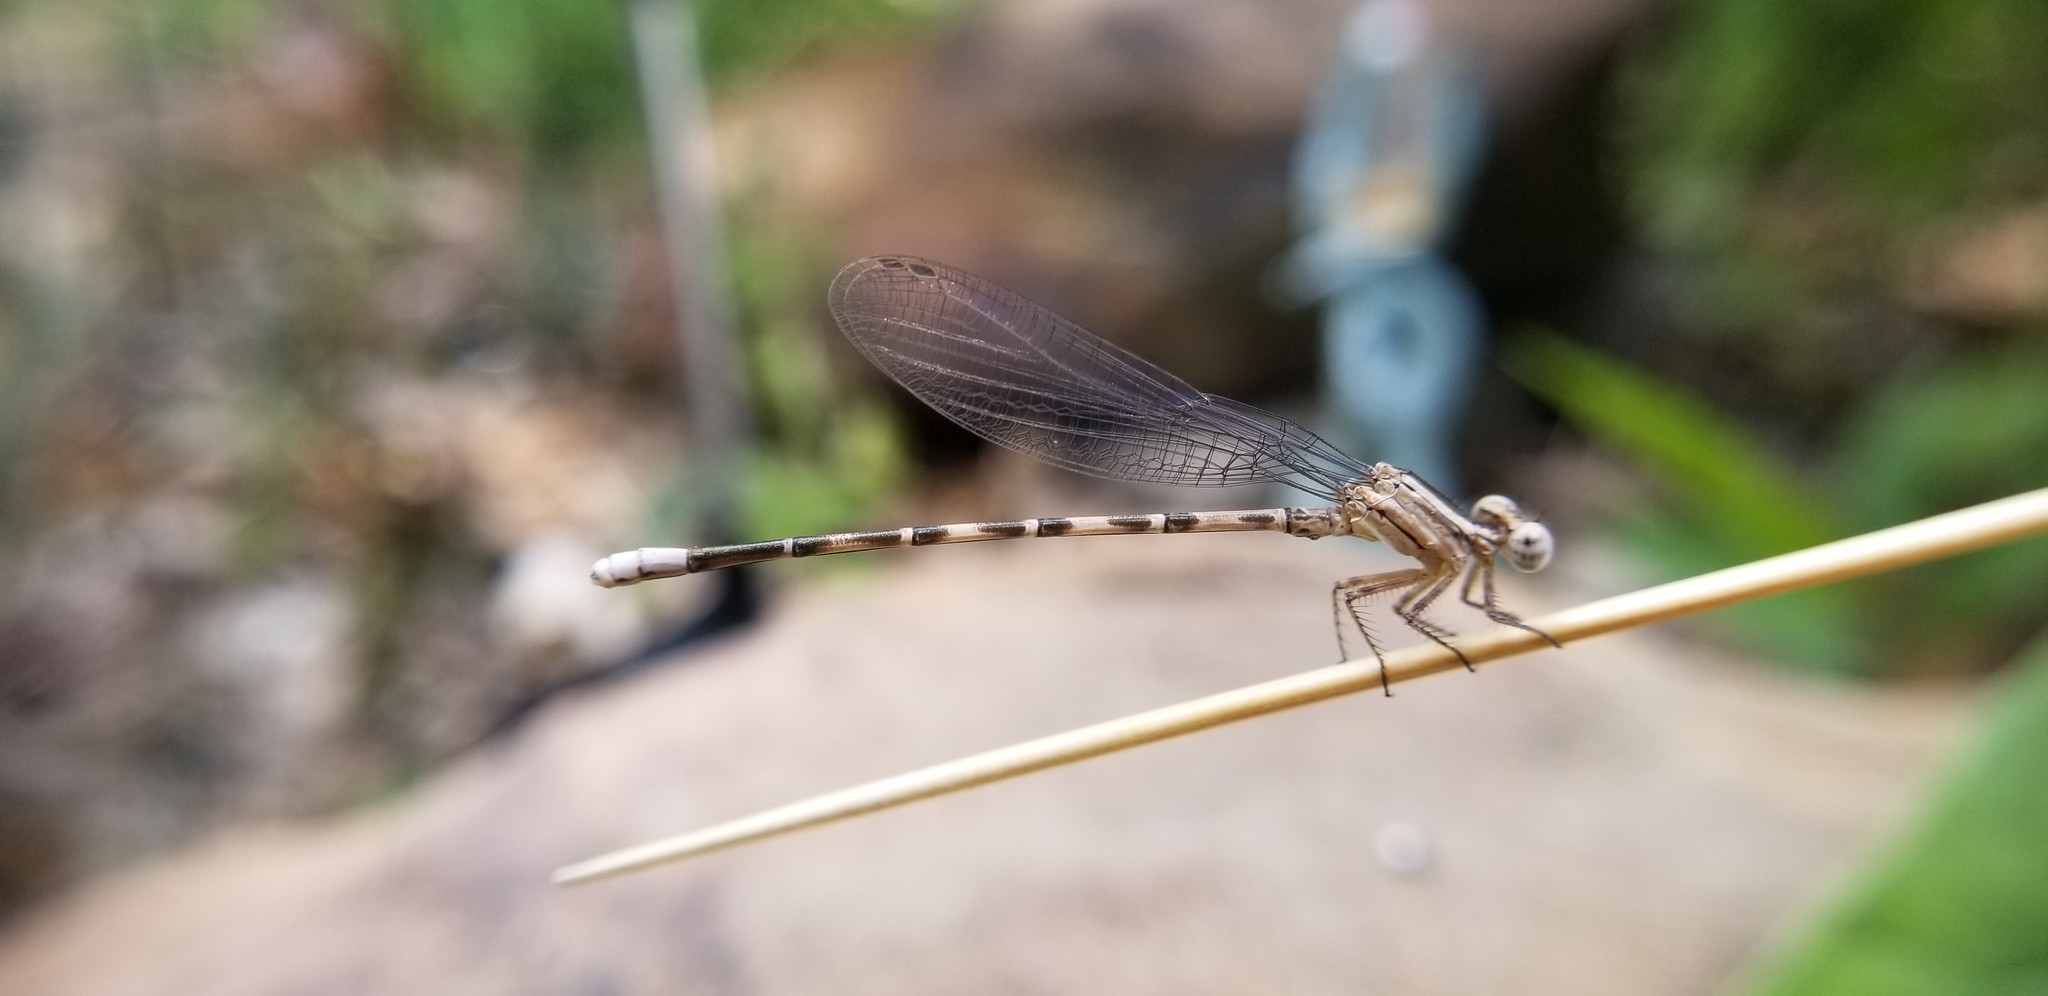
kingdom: Animalia
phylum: Arthropoda
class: Insecta
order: Odonata
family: Coenagrionidae
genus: Argia
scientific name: Argia immunda
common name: Kiowa dancer
